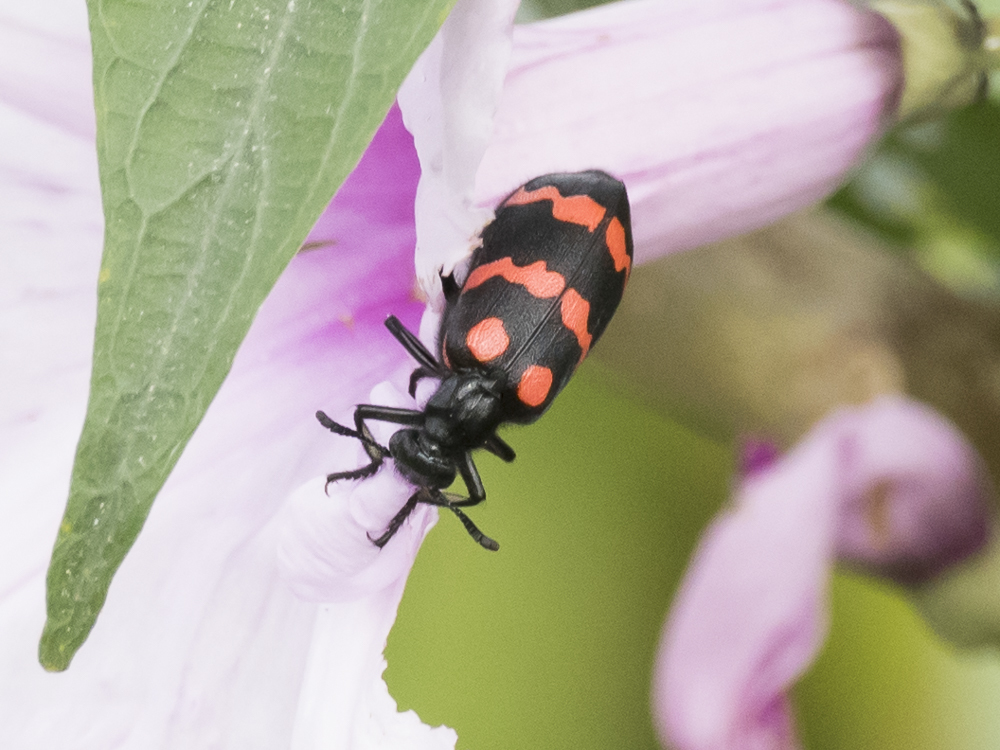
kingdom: Animalia
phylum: Arthropoda
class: Insecta
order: Coleoptera
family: Meloidae
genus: Hycleus
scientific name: Hycleus biundulatus
